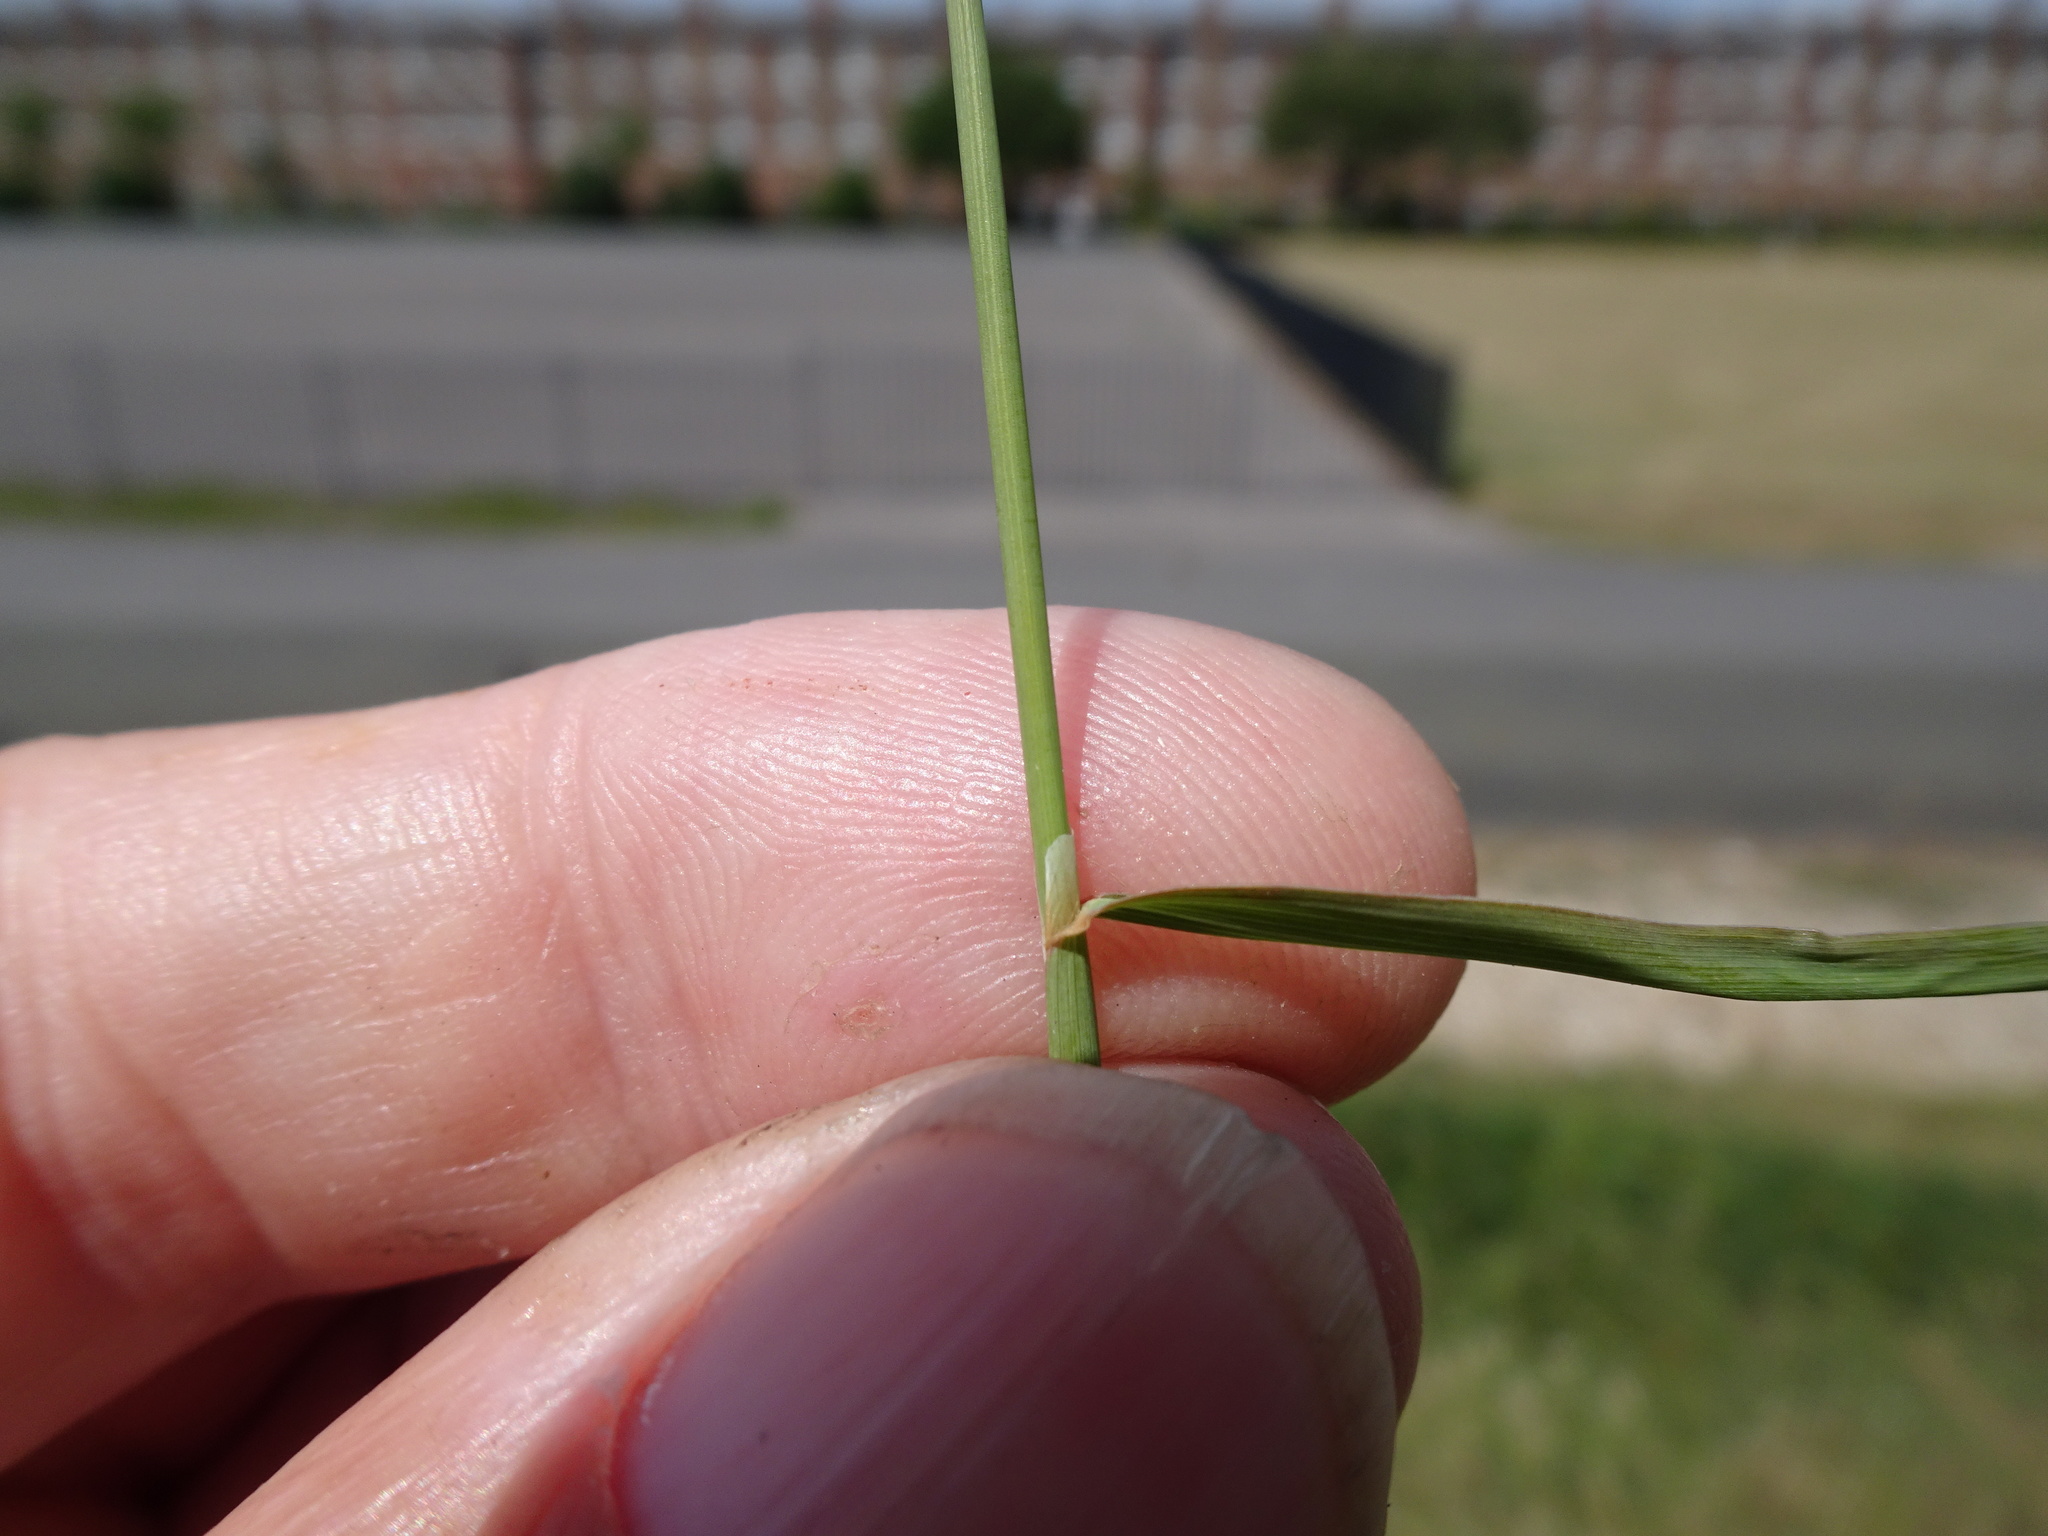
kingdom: Plantae
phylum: Tracheophyta
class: Liliopsida
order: Poales
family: Poaceae
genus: Phleum
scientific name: Phleum bertolonii
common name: Smaller cat's-tail
